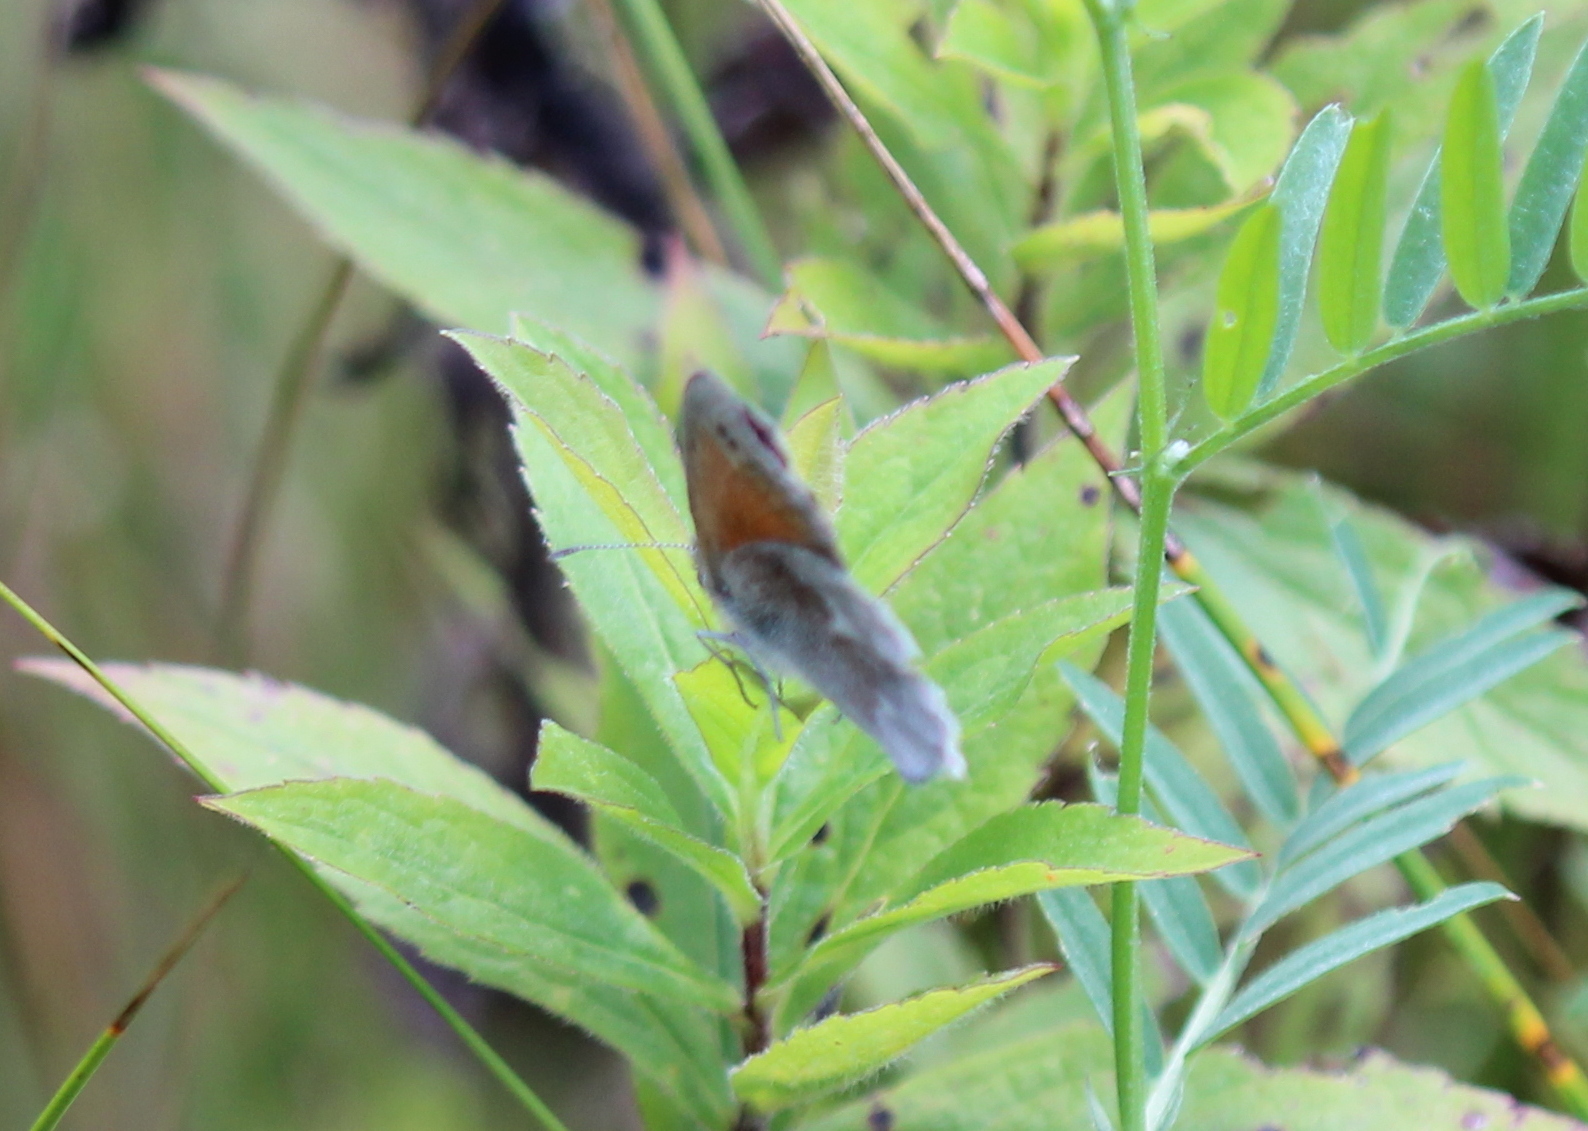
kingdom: Animalia
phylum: Arthropoda
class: Insecta
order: Lepidoptera
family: Nymphalidae
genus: Coenonympha
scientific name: Coenonympha california
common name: Common ringlet
